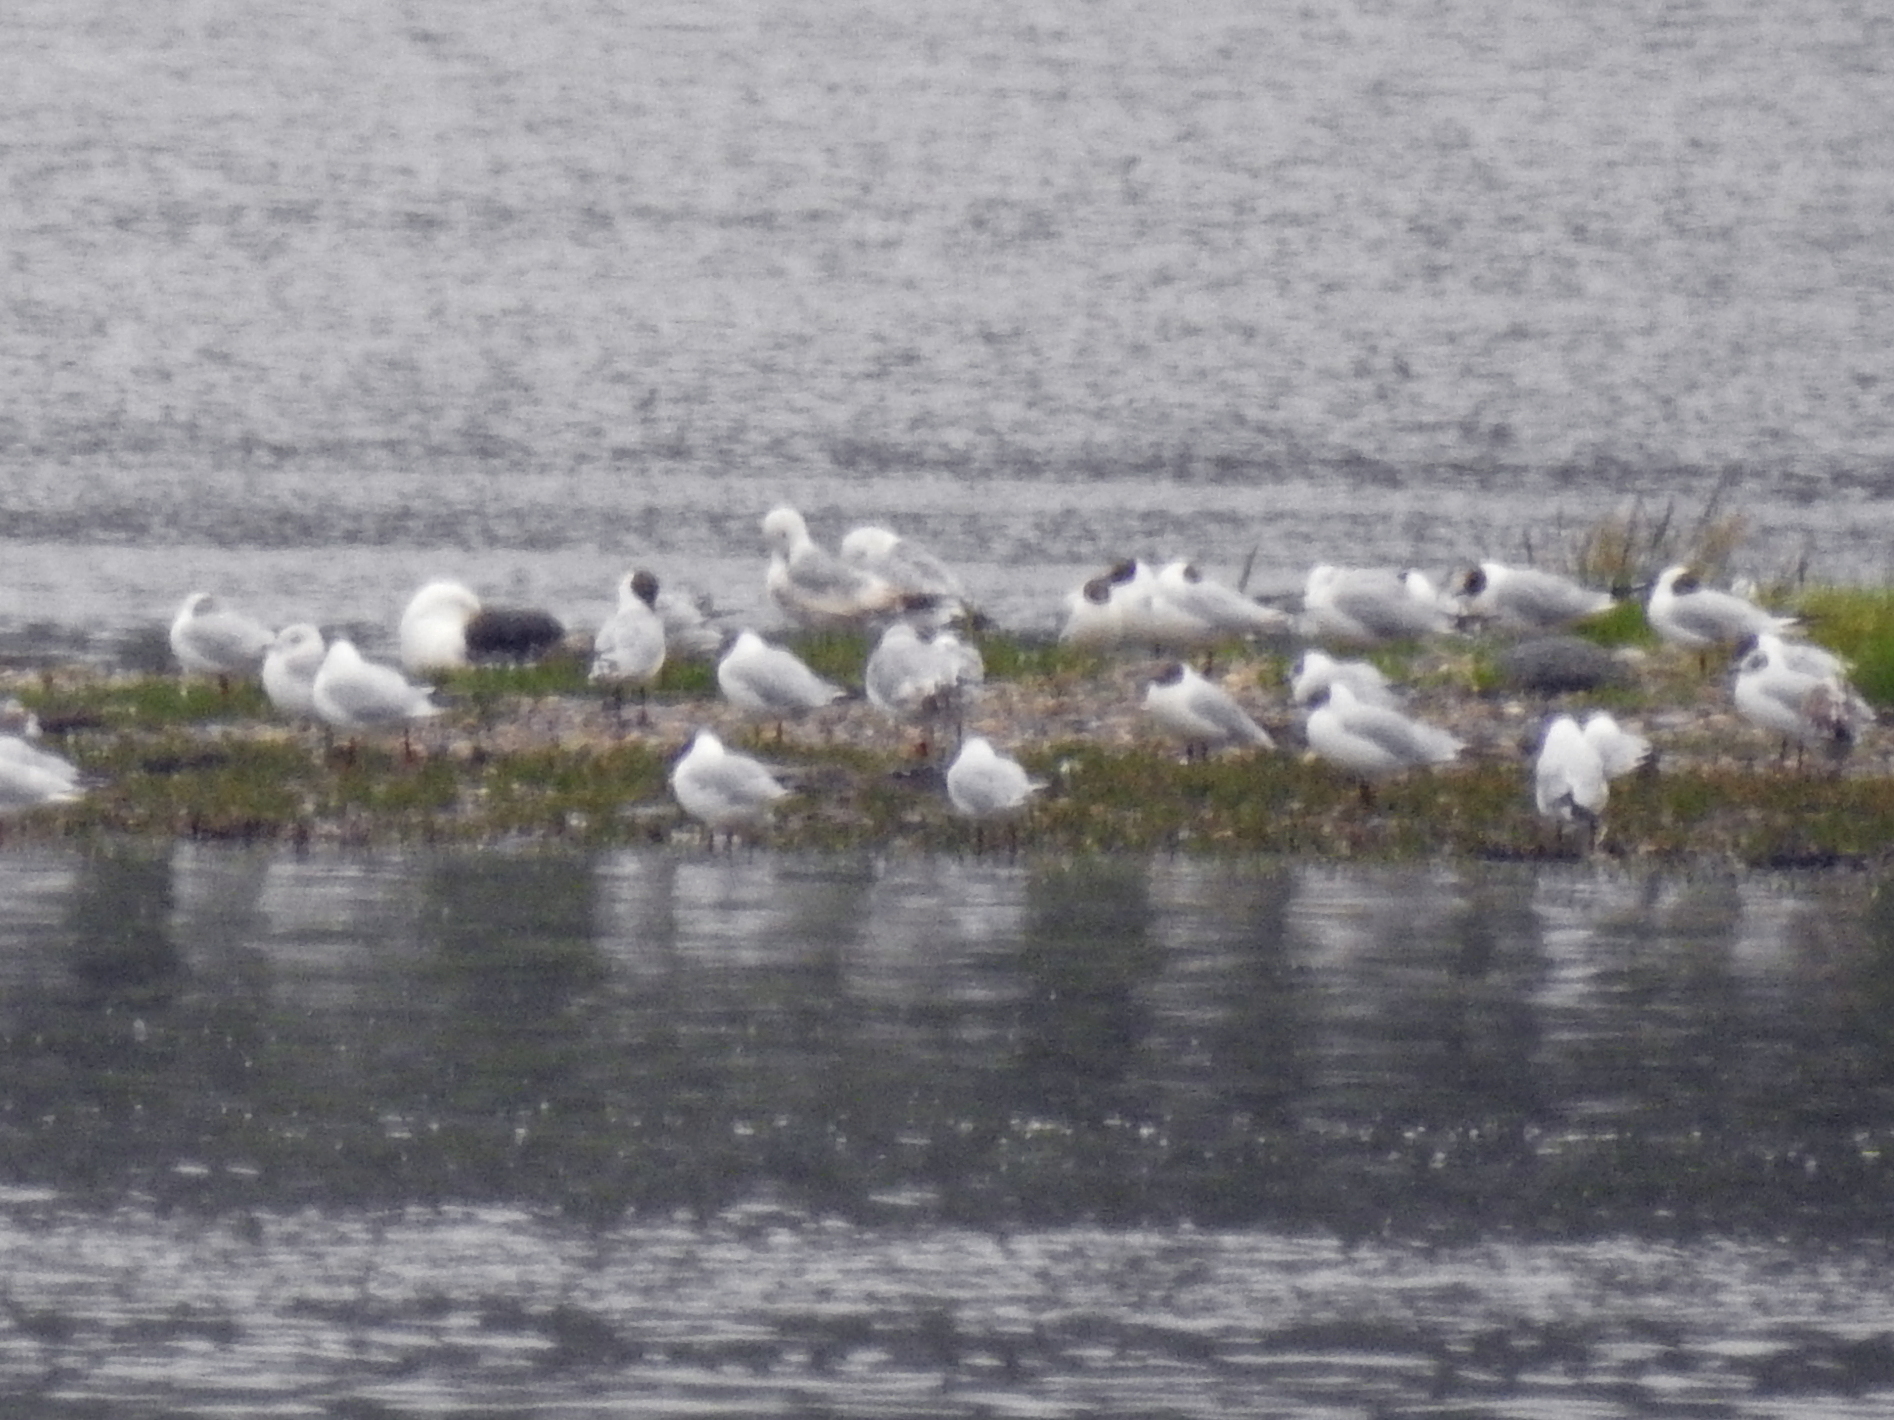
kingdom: Animalia
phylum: Chordata
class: Aves
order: Charadriiformes
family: Laridae
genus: Chroicocephalus
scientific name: Chroicocephalus ridibundus
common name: Black-headed gull
